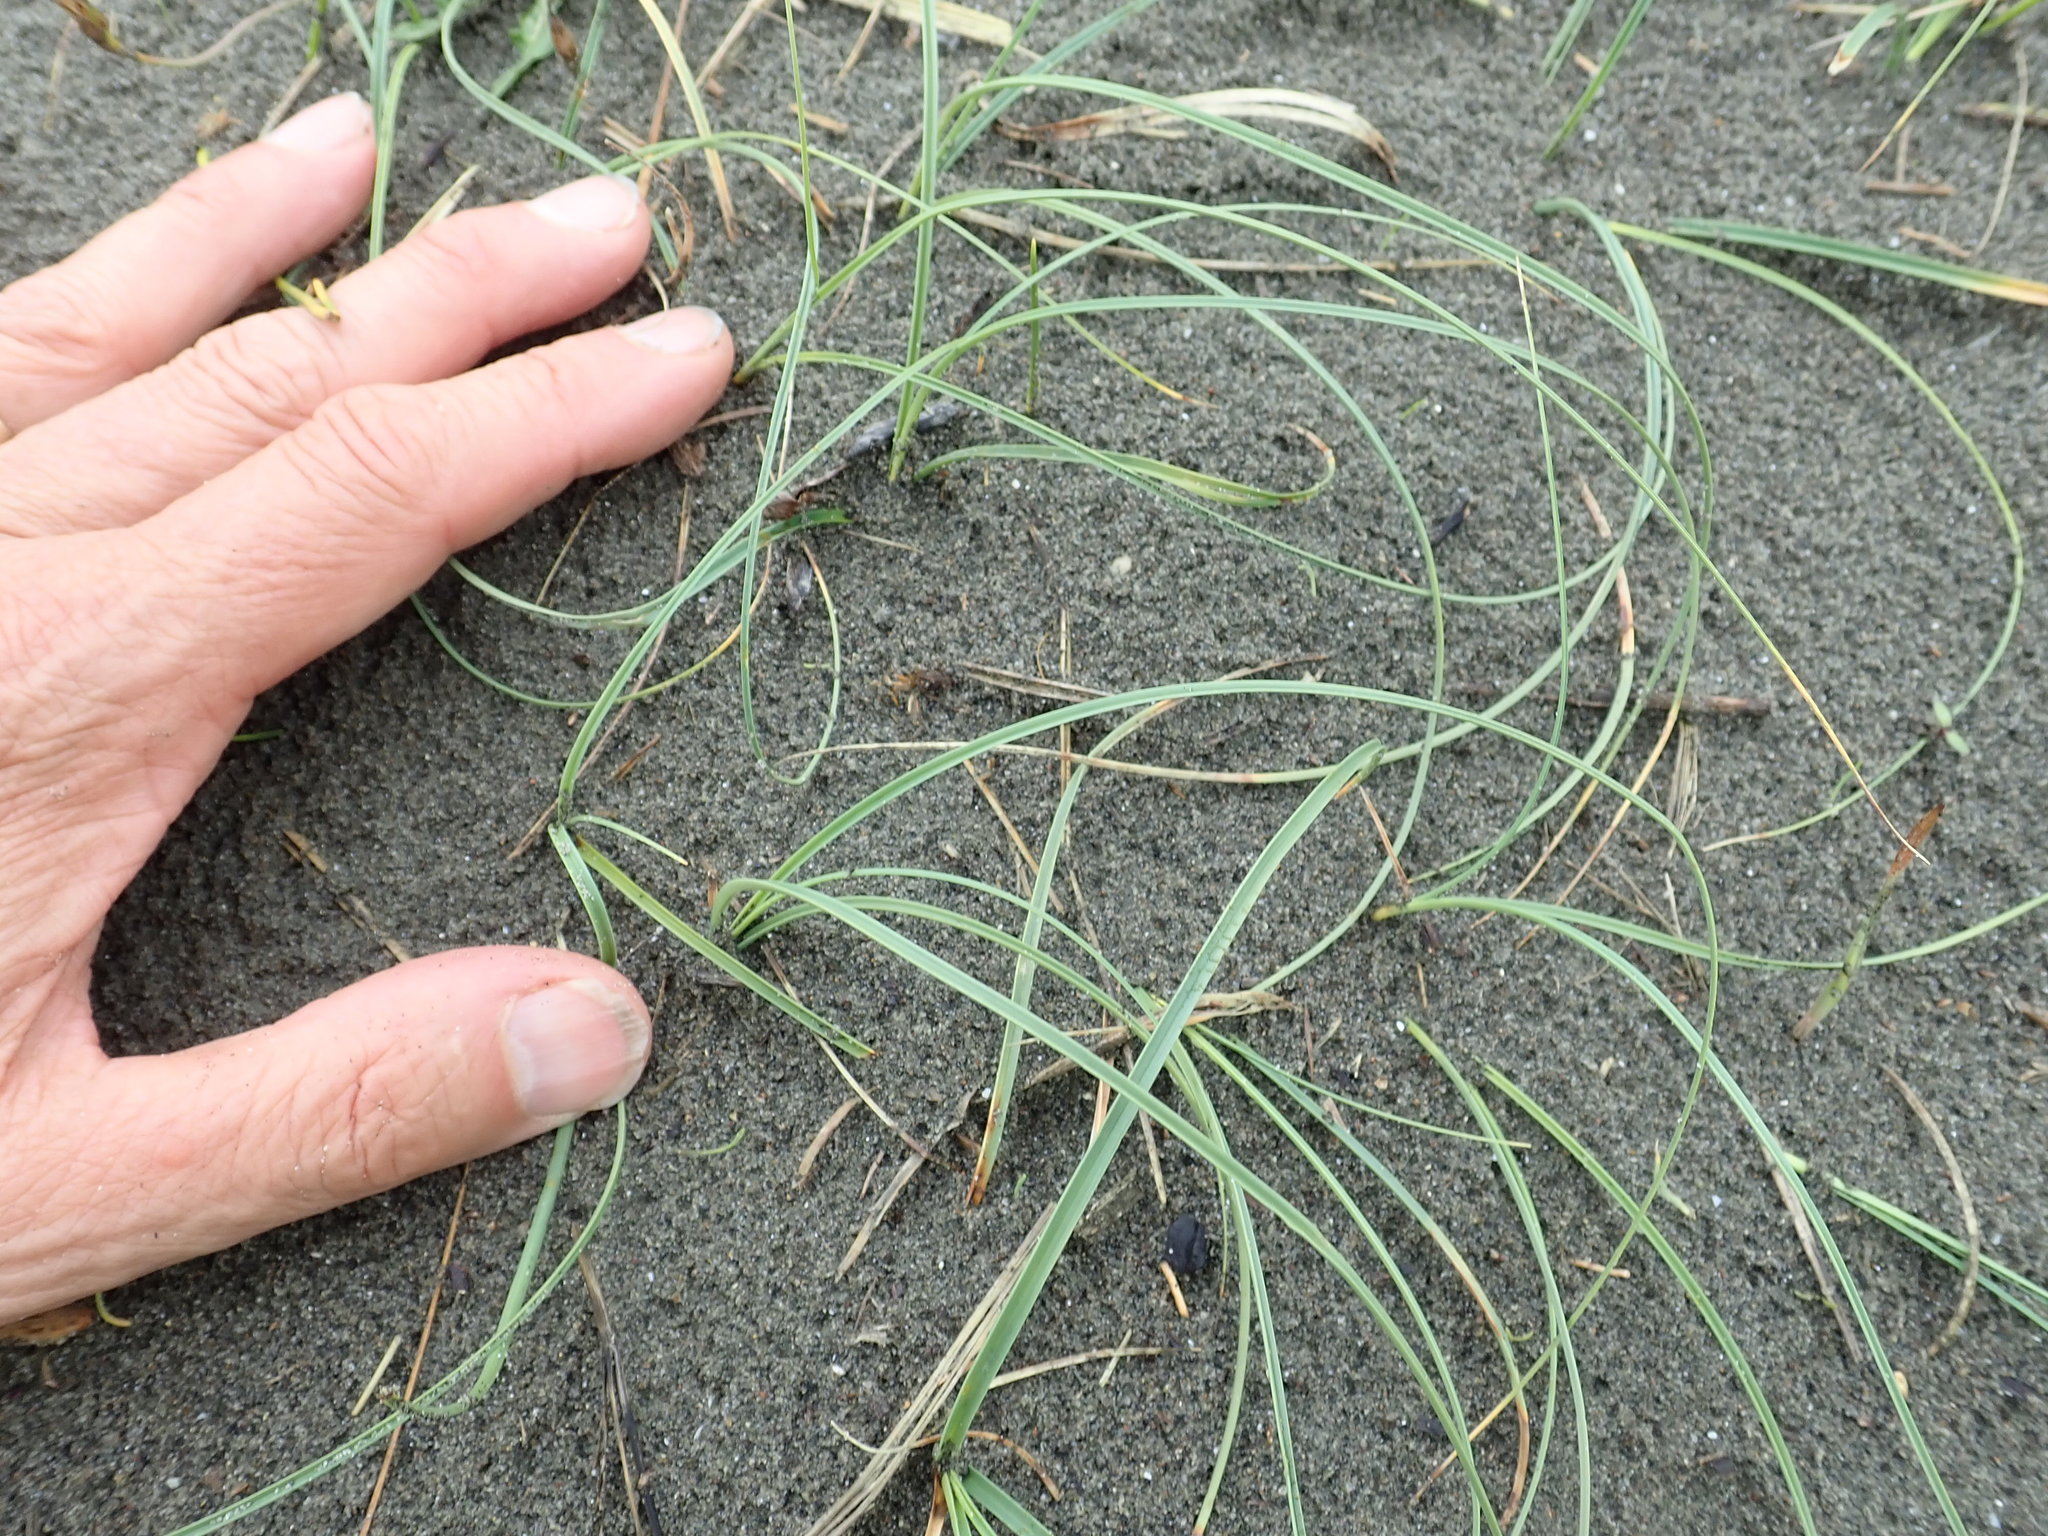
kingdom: Plantae
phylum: Tracheophyta
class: Liliopsida
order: Poales
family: Cyperaceae
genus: Carex
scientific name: Carex pumila
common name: Dwarf sedge
